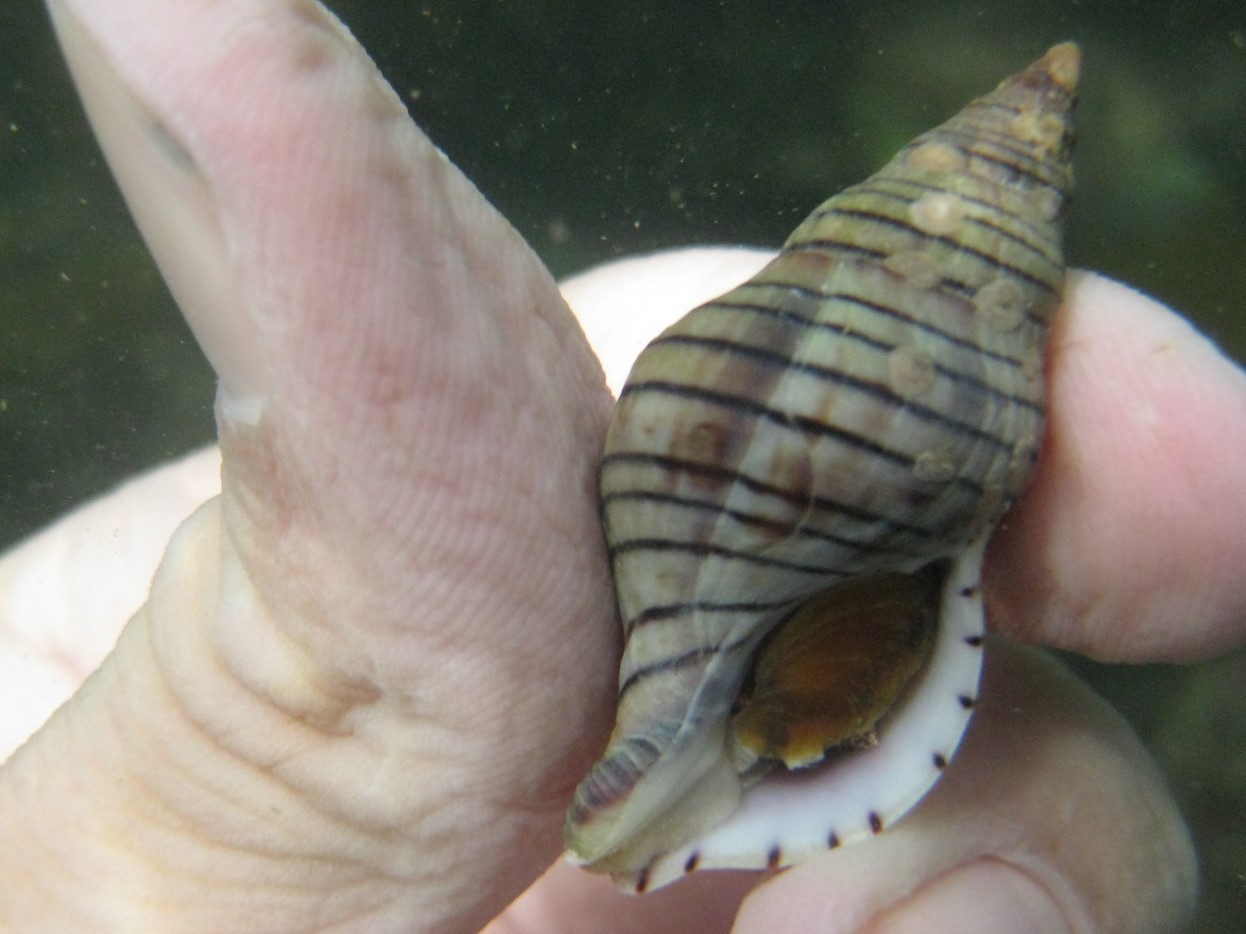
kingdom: Animalia
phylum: Mollusca
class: Gastropoda
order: Neogastropoda
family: Tudiclidae
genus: Buccinulum
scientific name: Buccinulum pallidum
